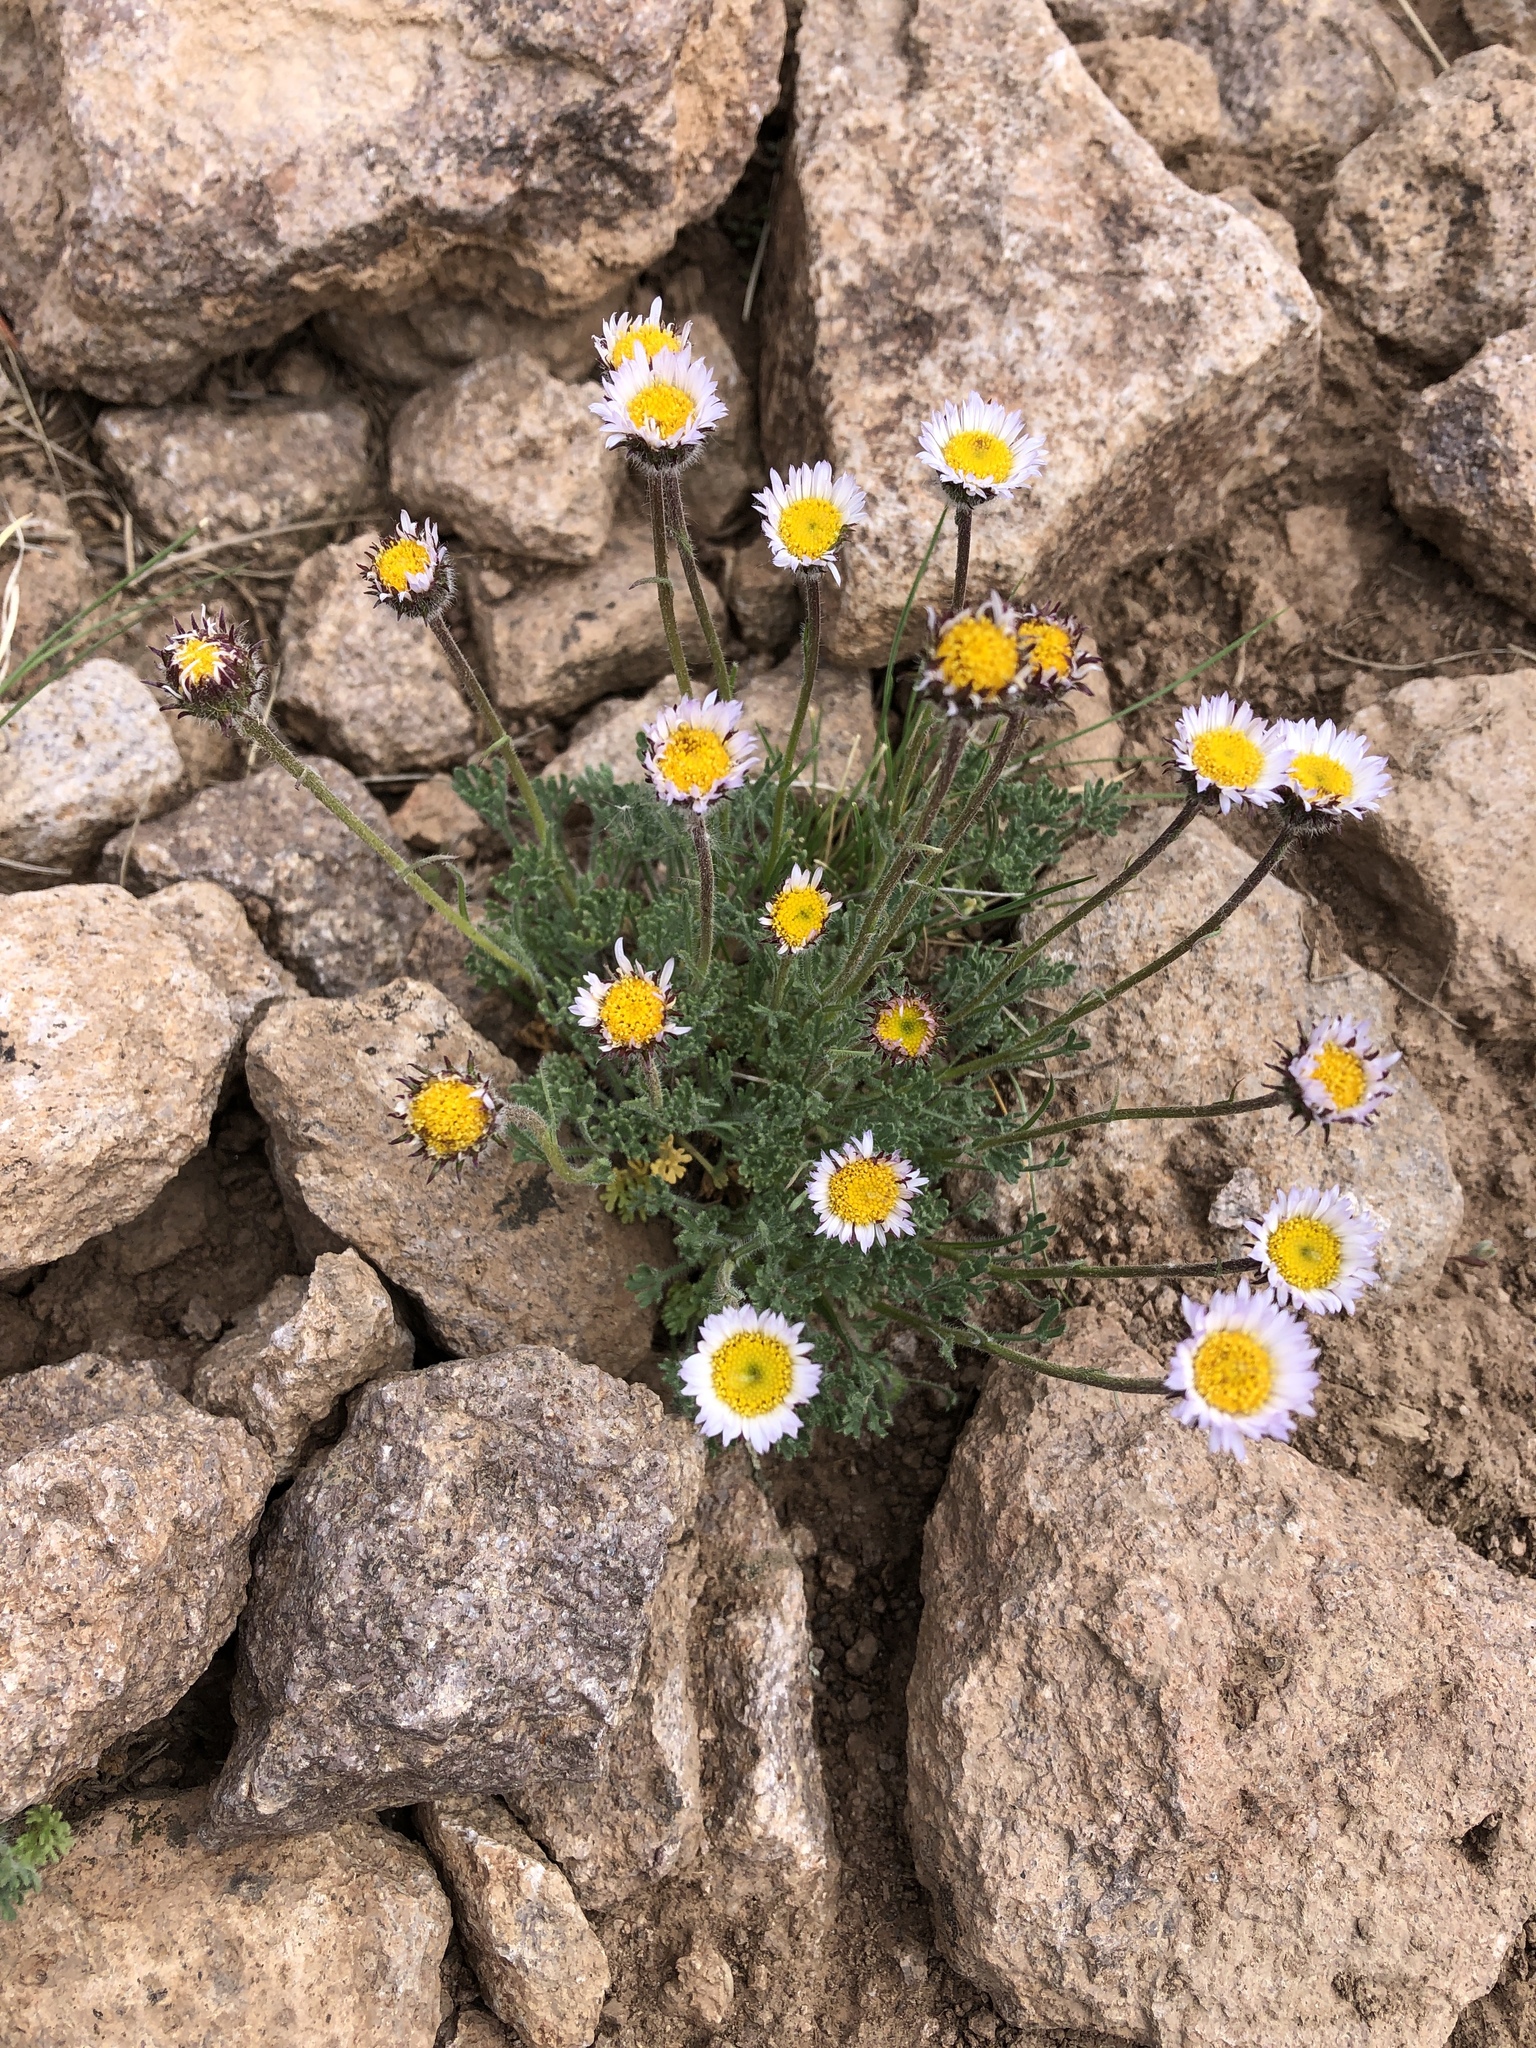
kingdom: Plantae
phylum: Tracheophyta
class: Magnoliopsida
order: Asterales
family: Asteraceae
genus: Erigeron
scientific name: Erigeron compositus
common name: Dwarf mountain fleabane
